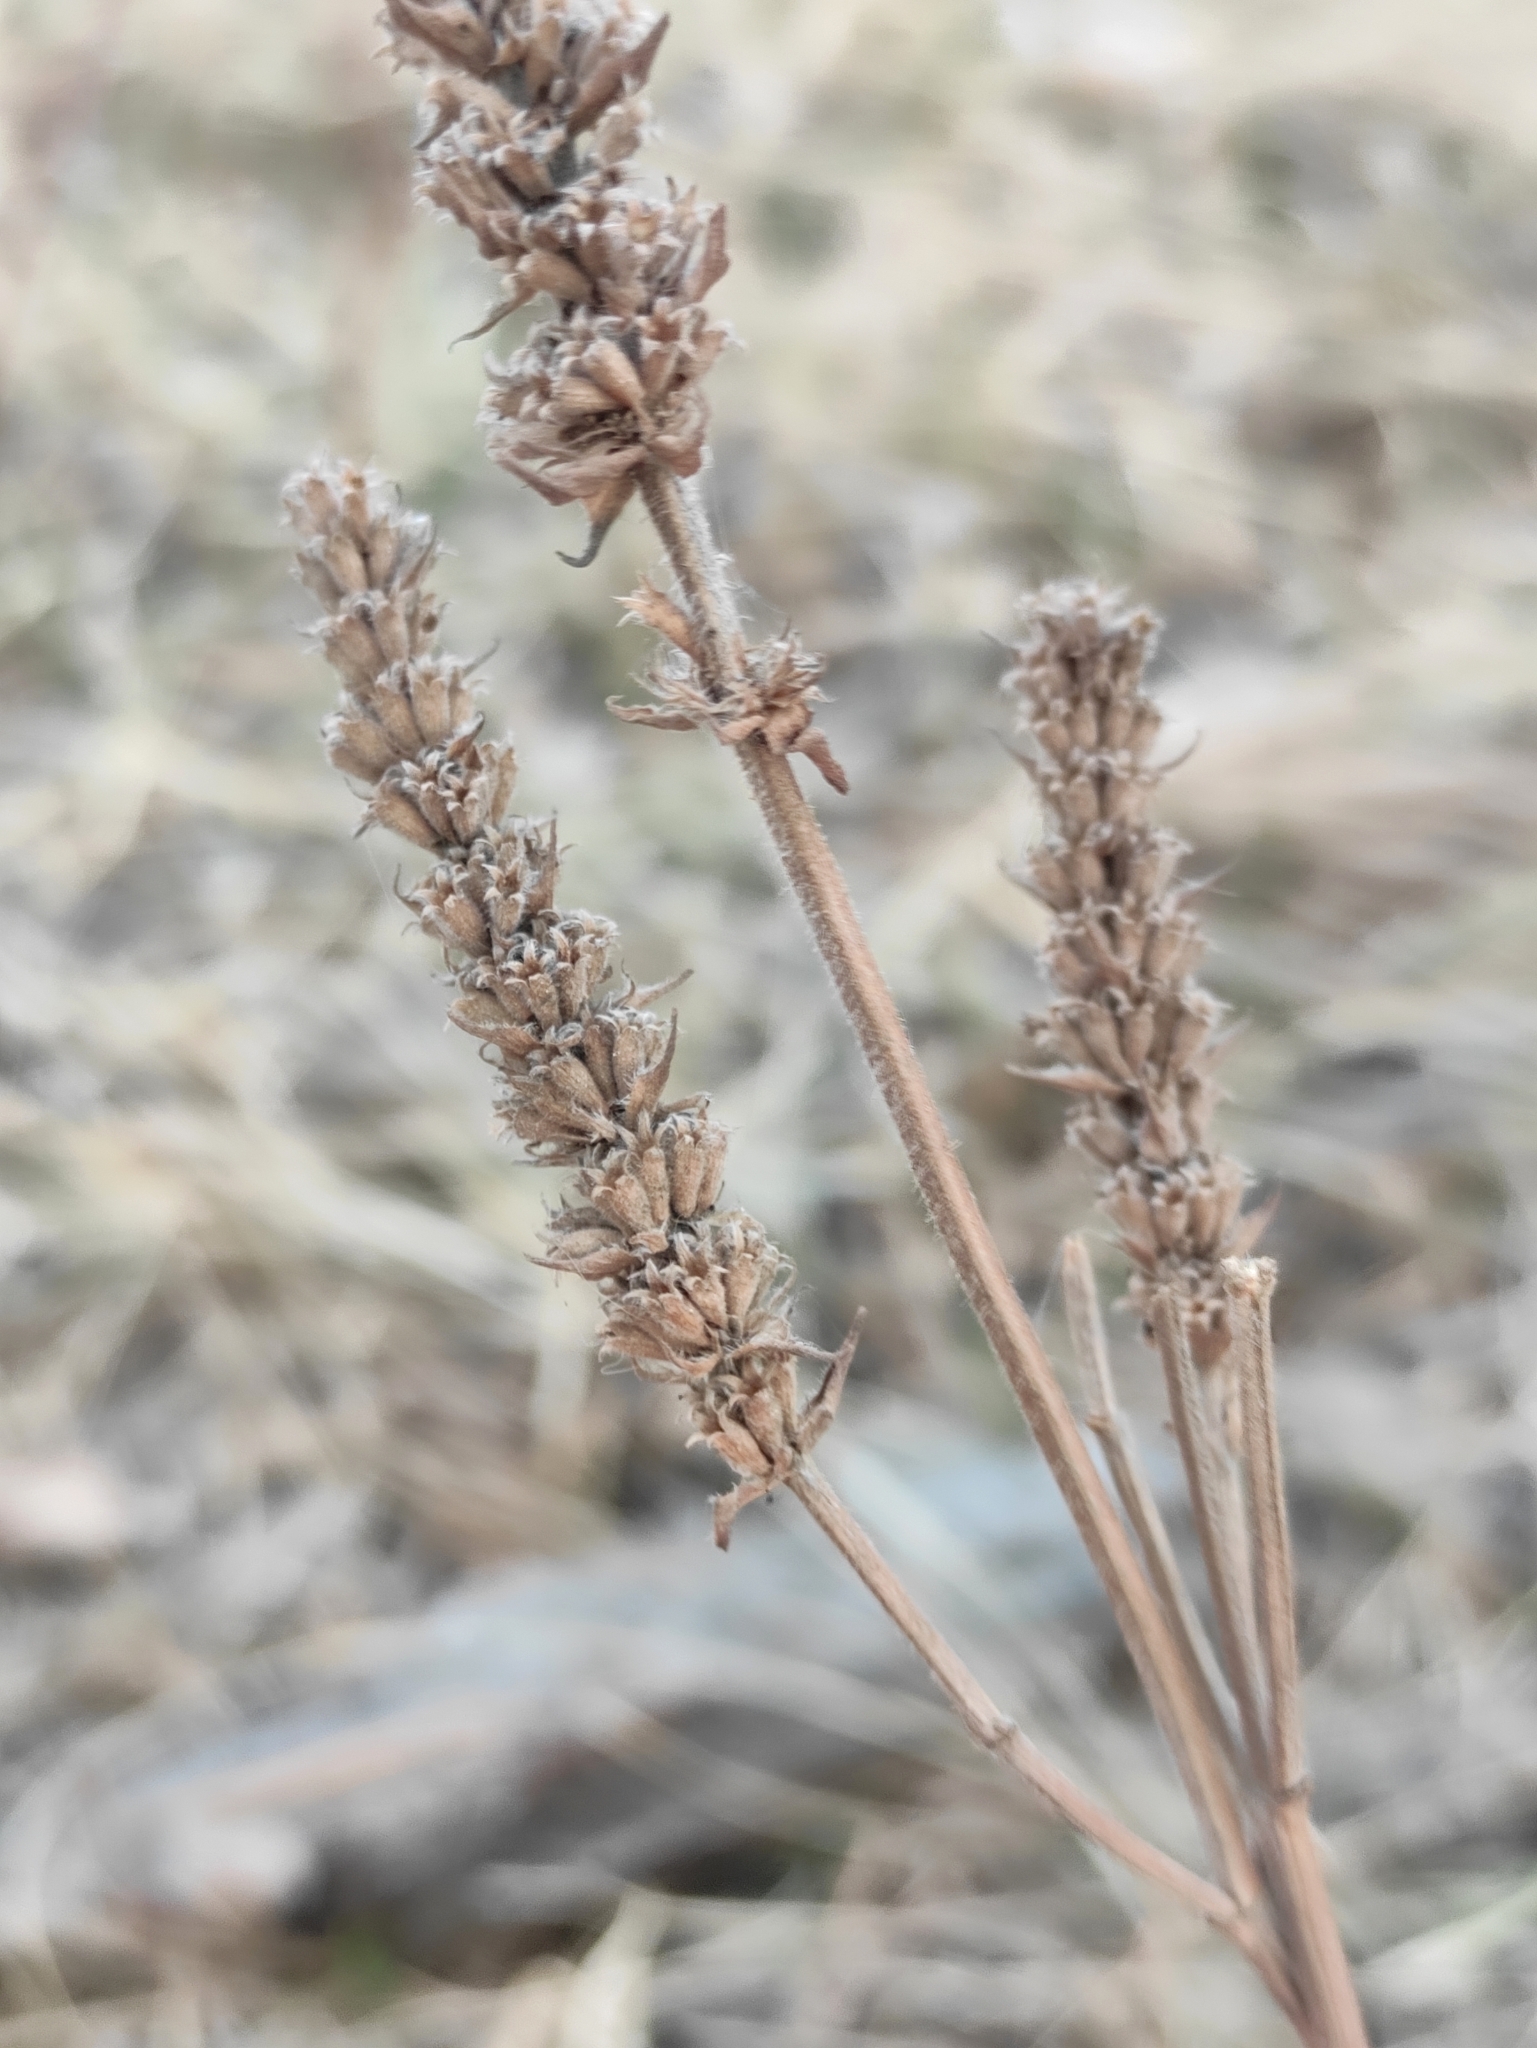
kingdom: Plantae
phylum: Tracheophyta
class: Magnoliopsida
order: Lamiales
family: Lamiaceae
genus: Nepeta
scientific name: Nepeta multifida
